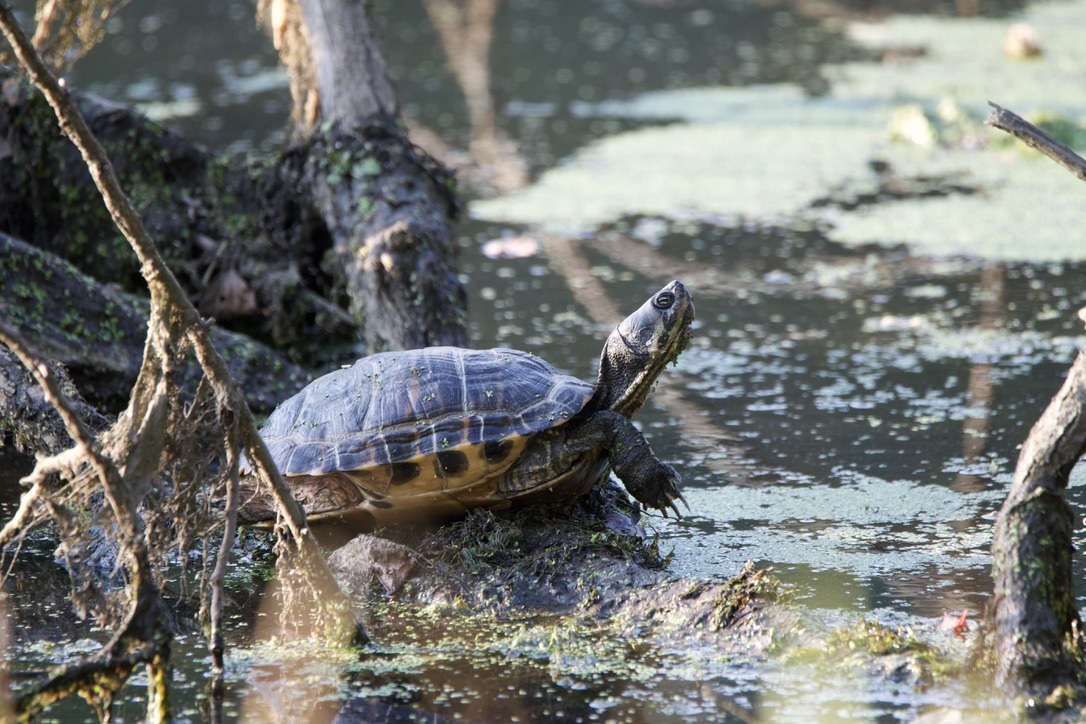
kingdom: Animalia
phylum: Chordata
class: Testudines
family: Emydidae
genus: Trachemys
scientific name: Trachemys scripta
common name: Slider
